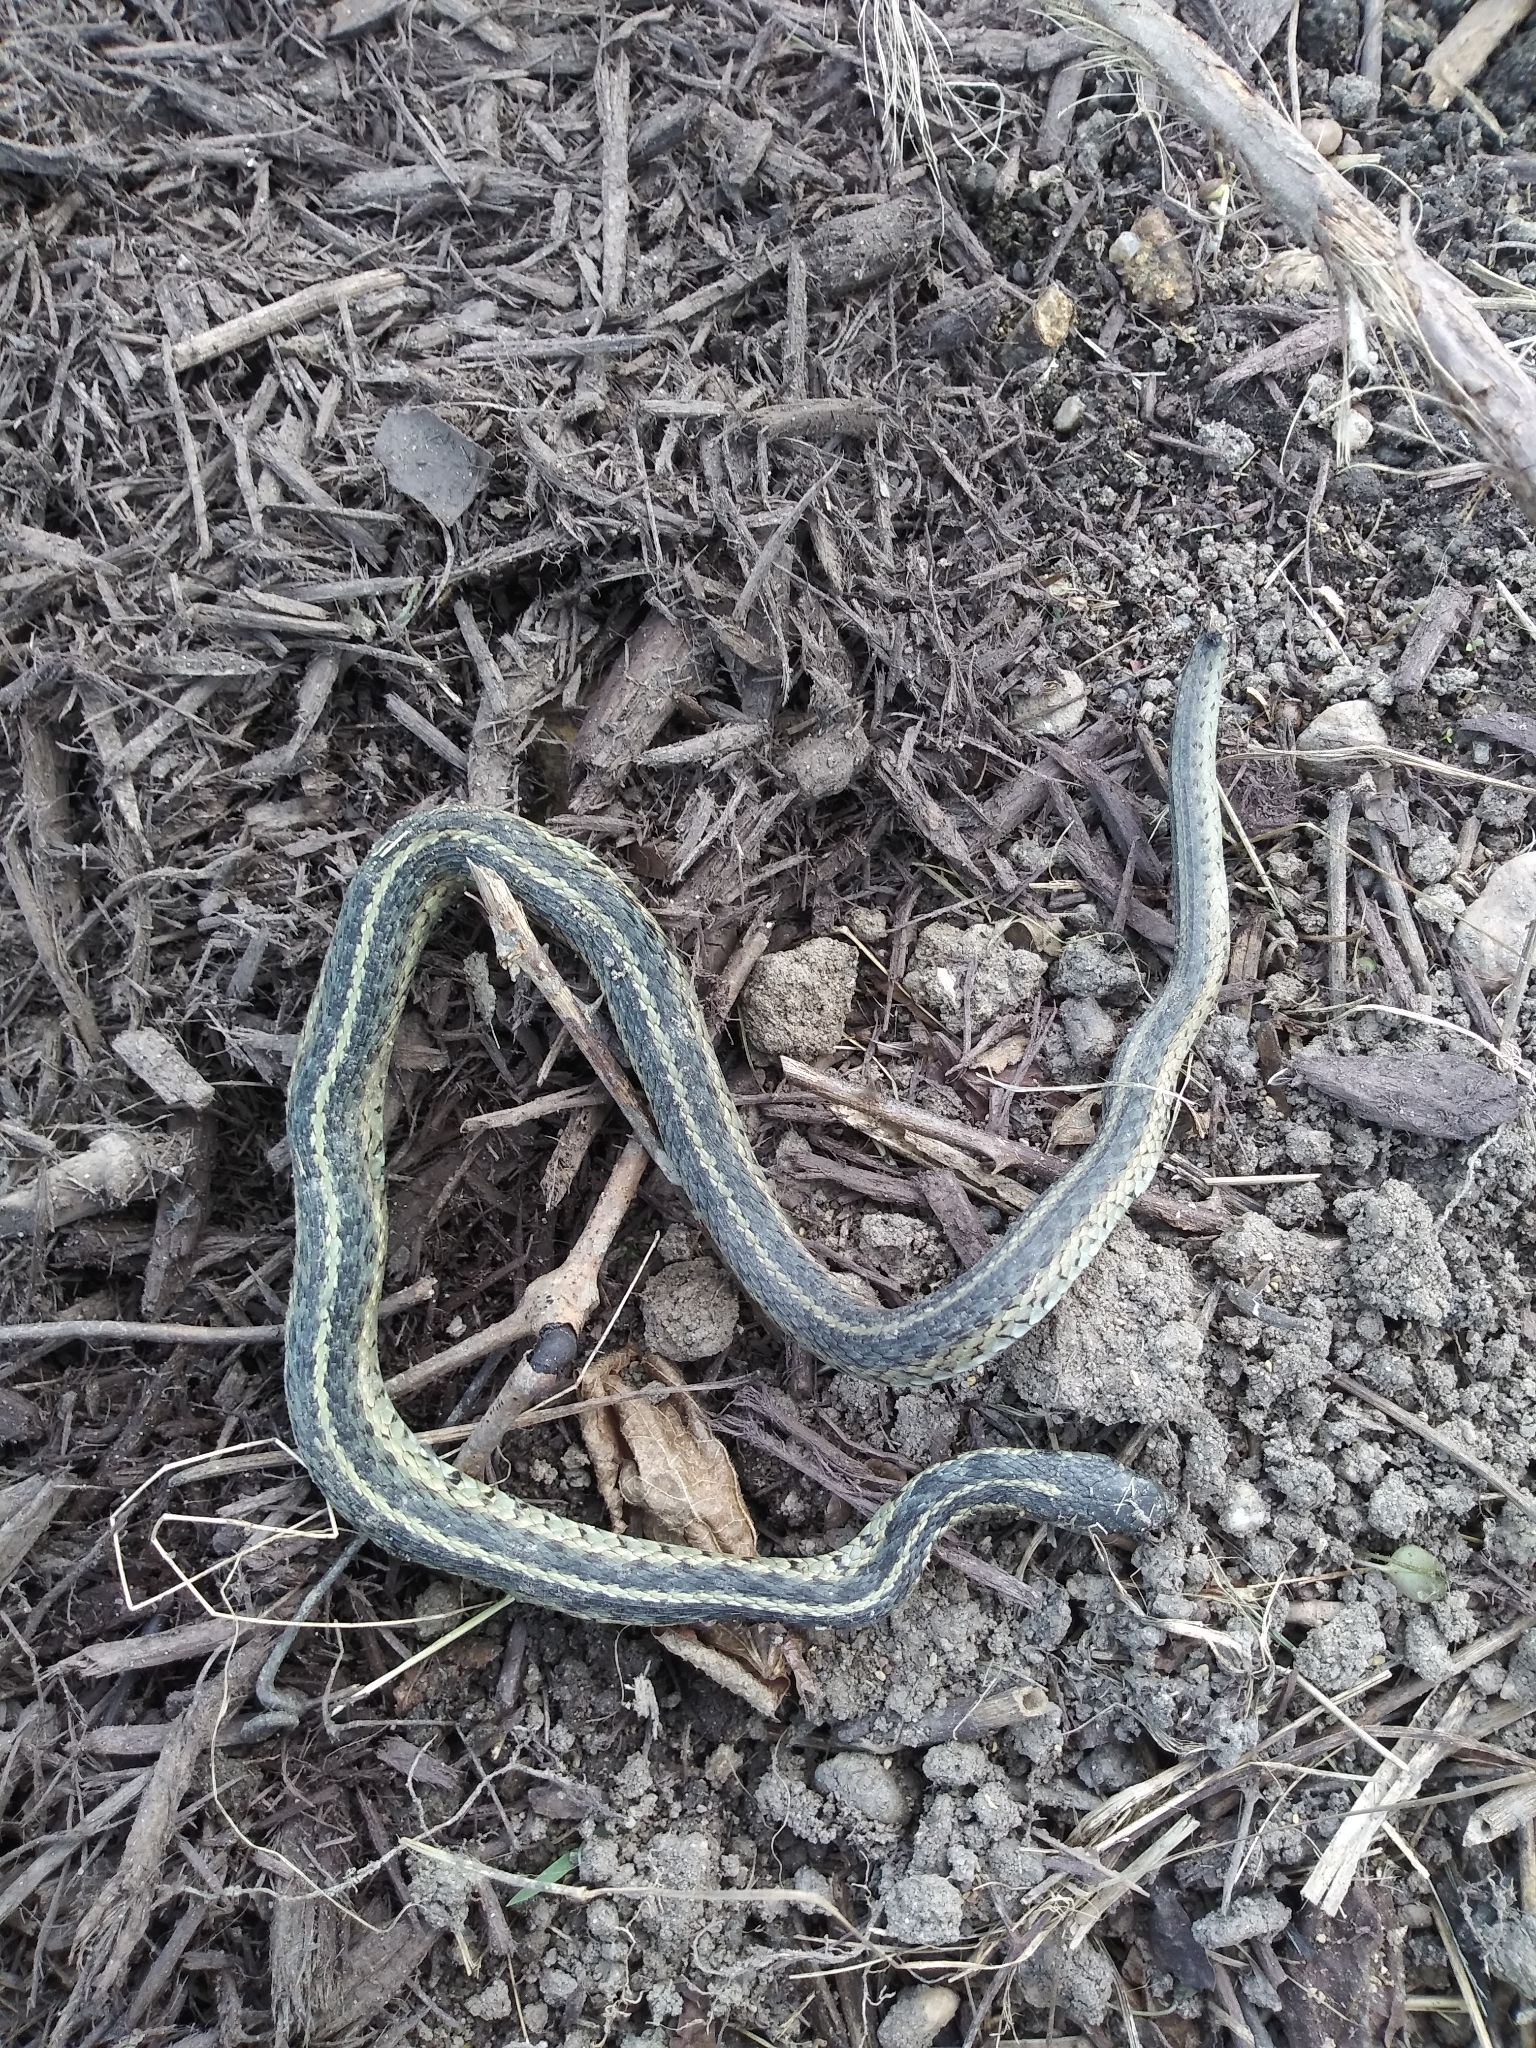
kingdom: Animalia
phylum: Chordata
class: Squamata
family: Colubridae
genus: Thamnophis
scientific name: Thamnophis sirtalis
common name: Common garter snake
